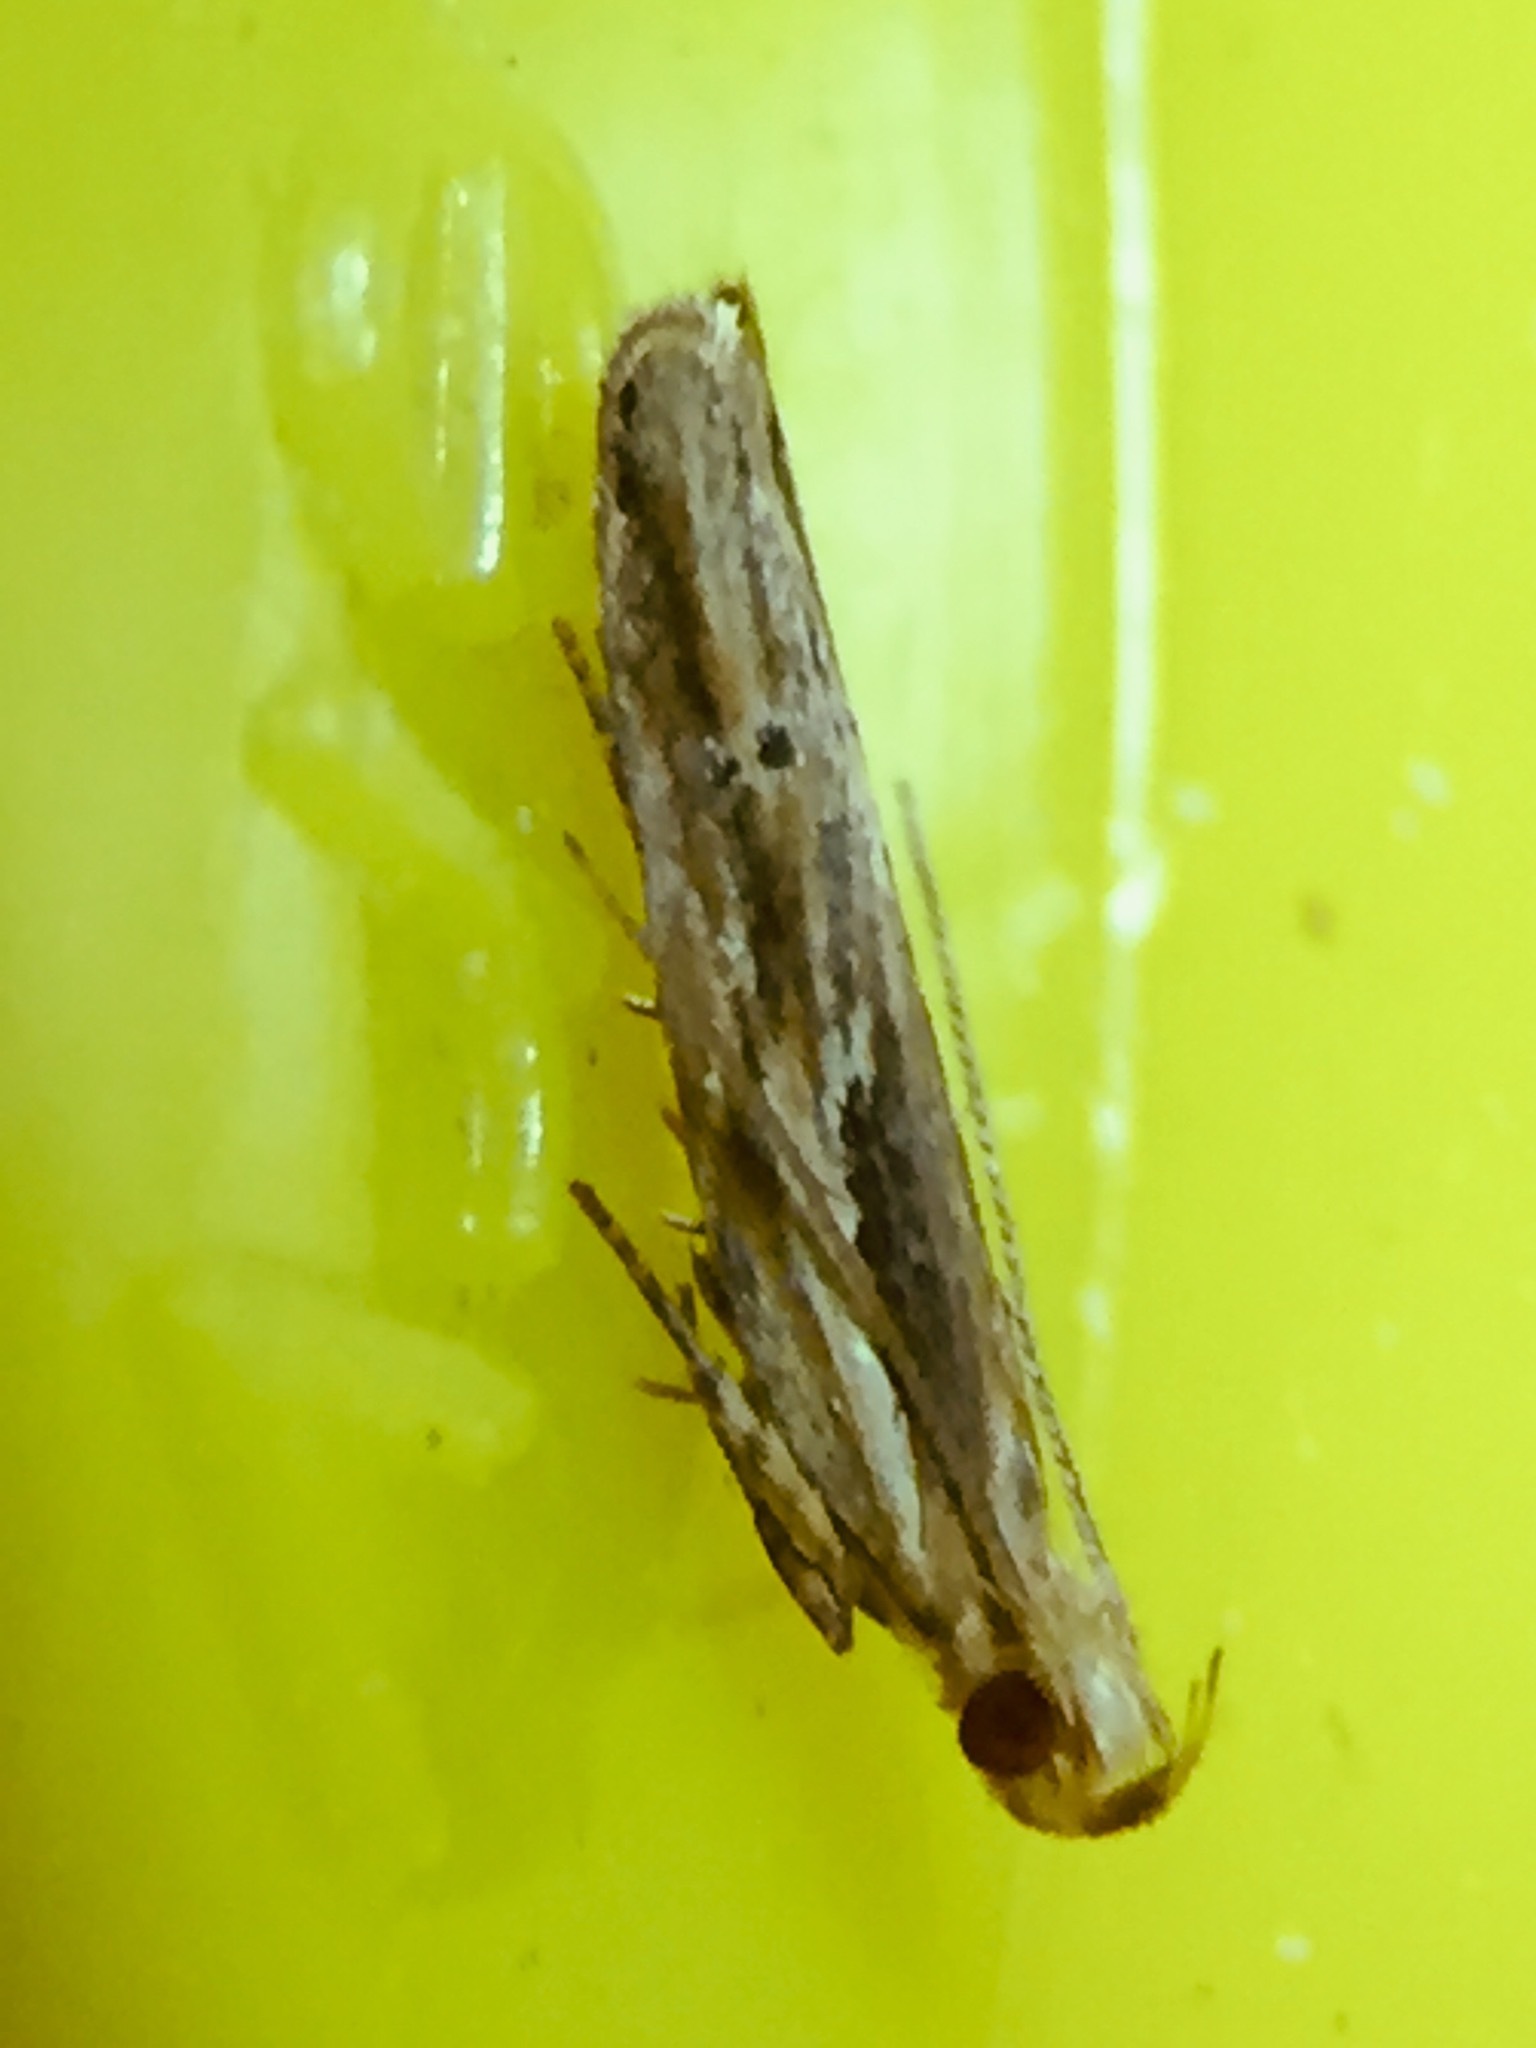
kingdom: Animalia
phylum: Arthropoda
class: Insecta
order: Lepidoptera
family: Depressariidae
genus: Eutorna
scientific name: Eutorna symmorpha
